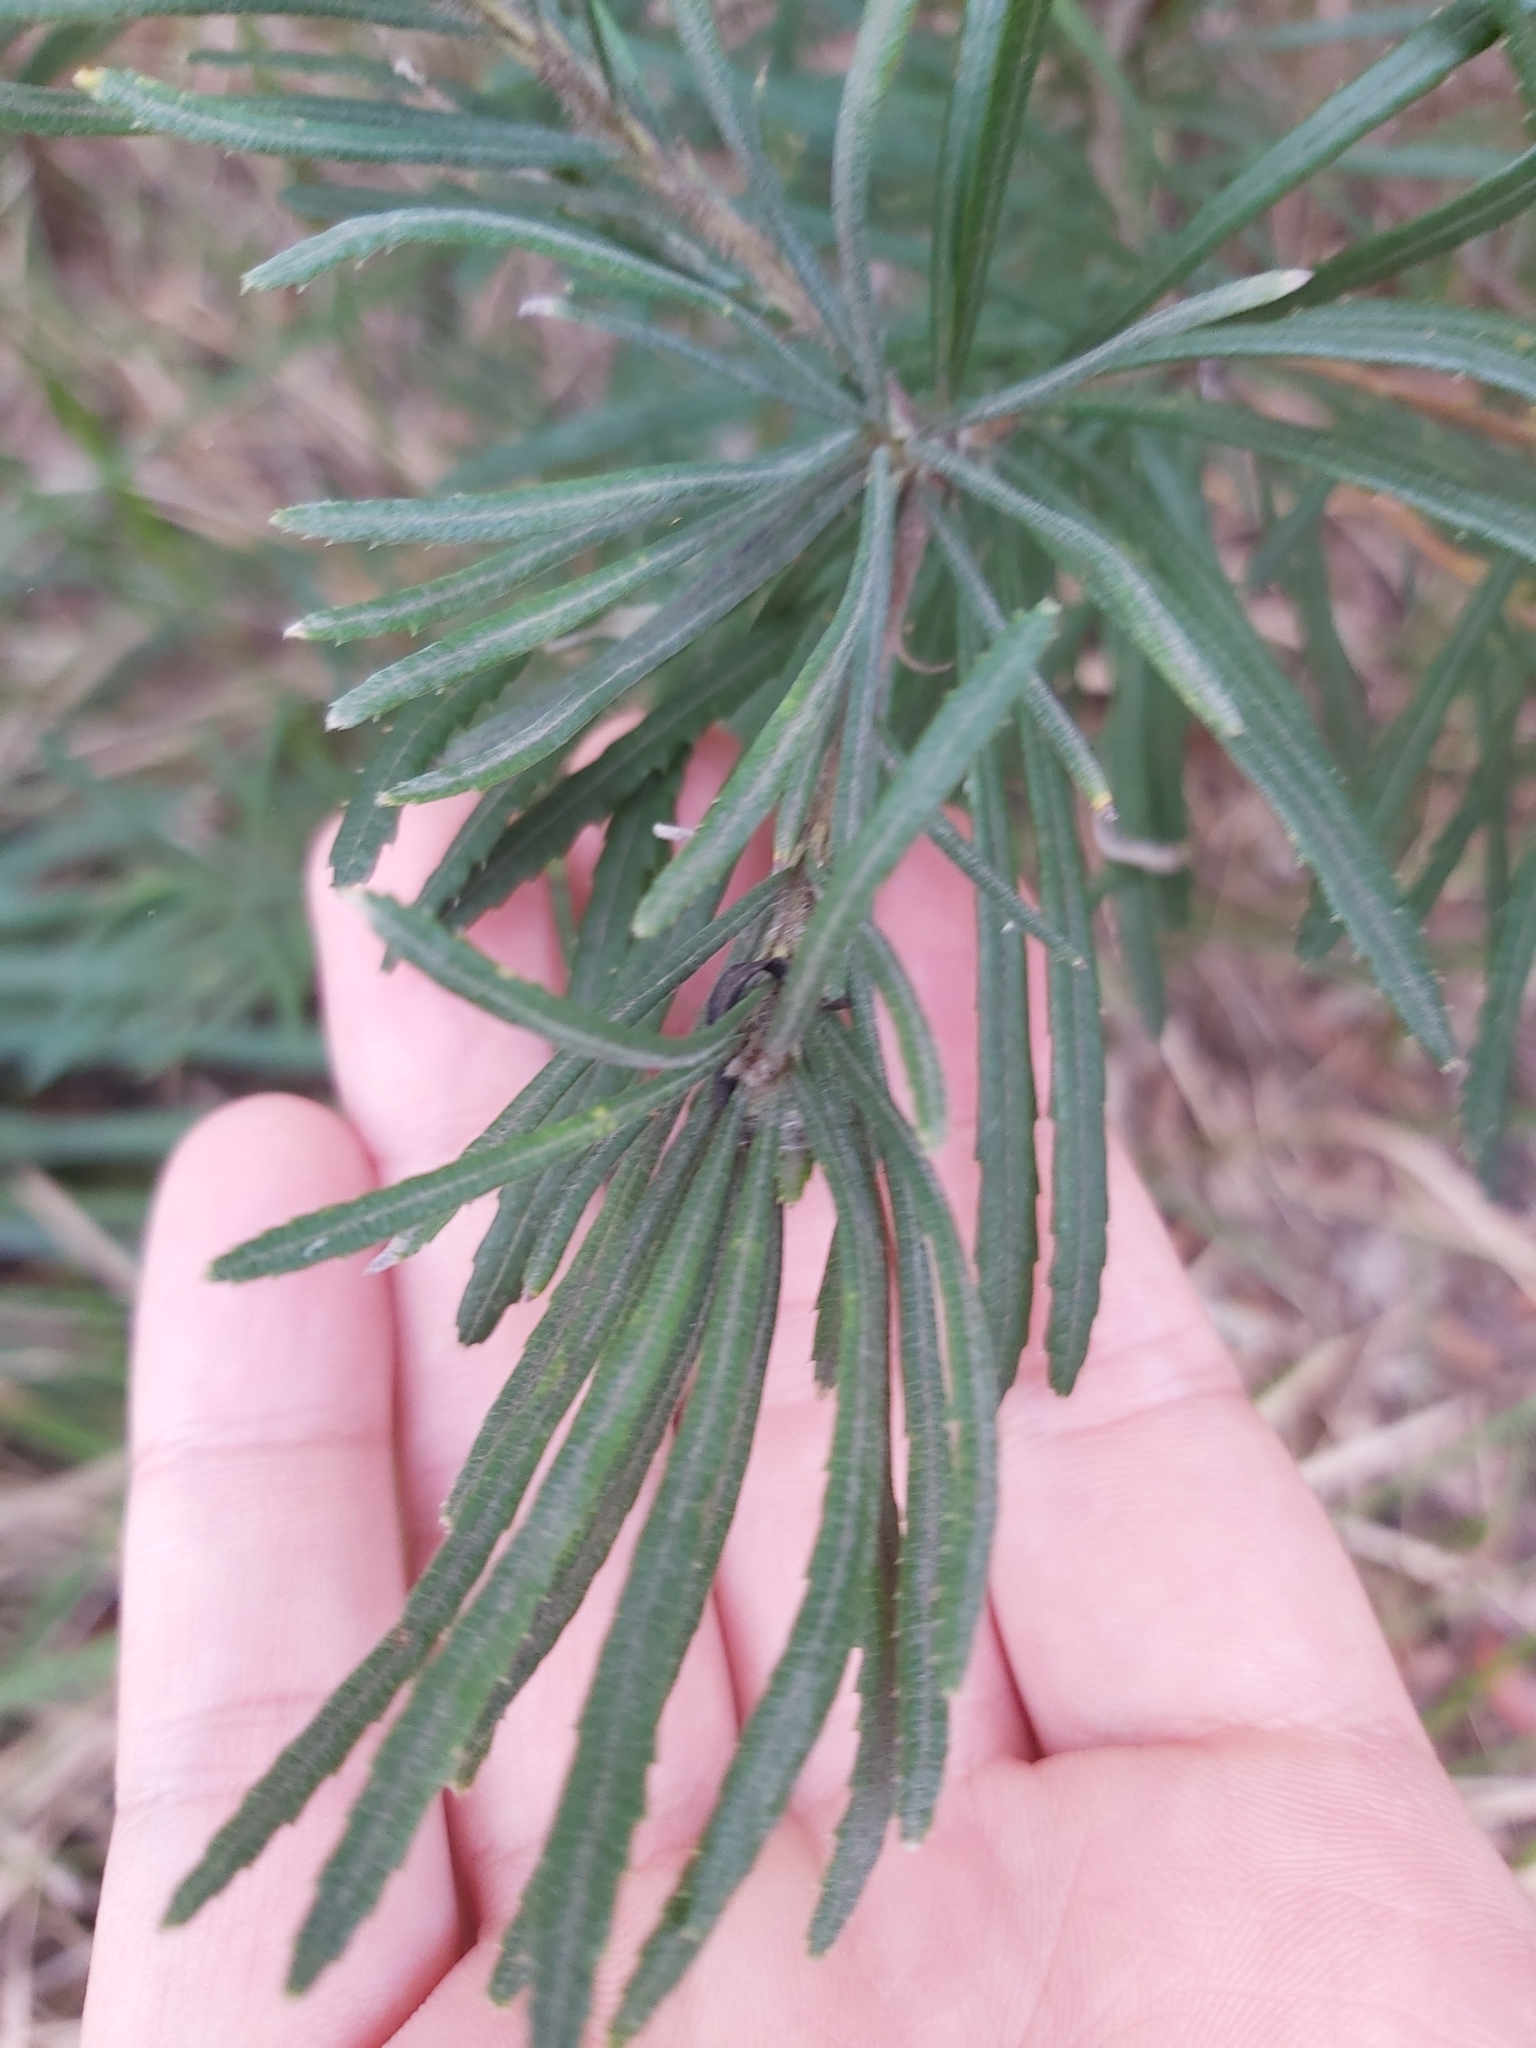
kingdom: Plantae
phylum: Tracheophyta
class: Magnoliopsida
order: Proteales
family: Proteaceae
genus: Banksia
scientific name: Banksia spinulosa
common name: Hairpin banksia
